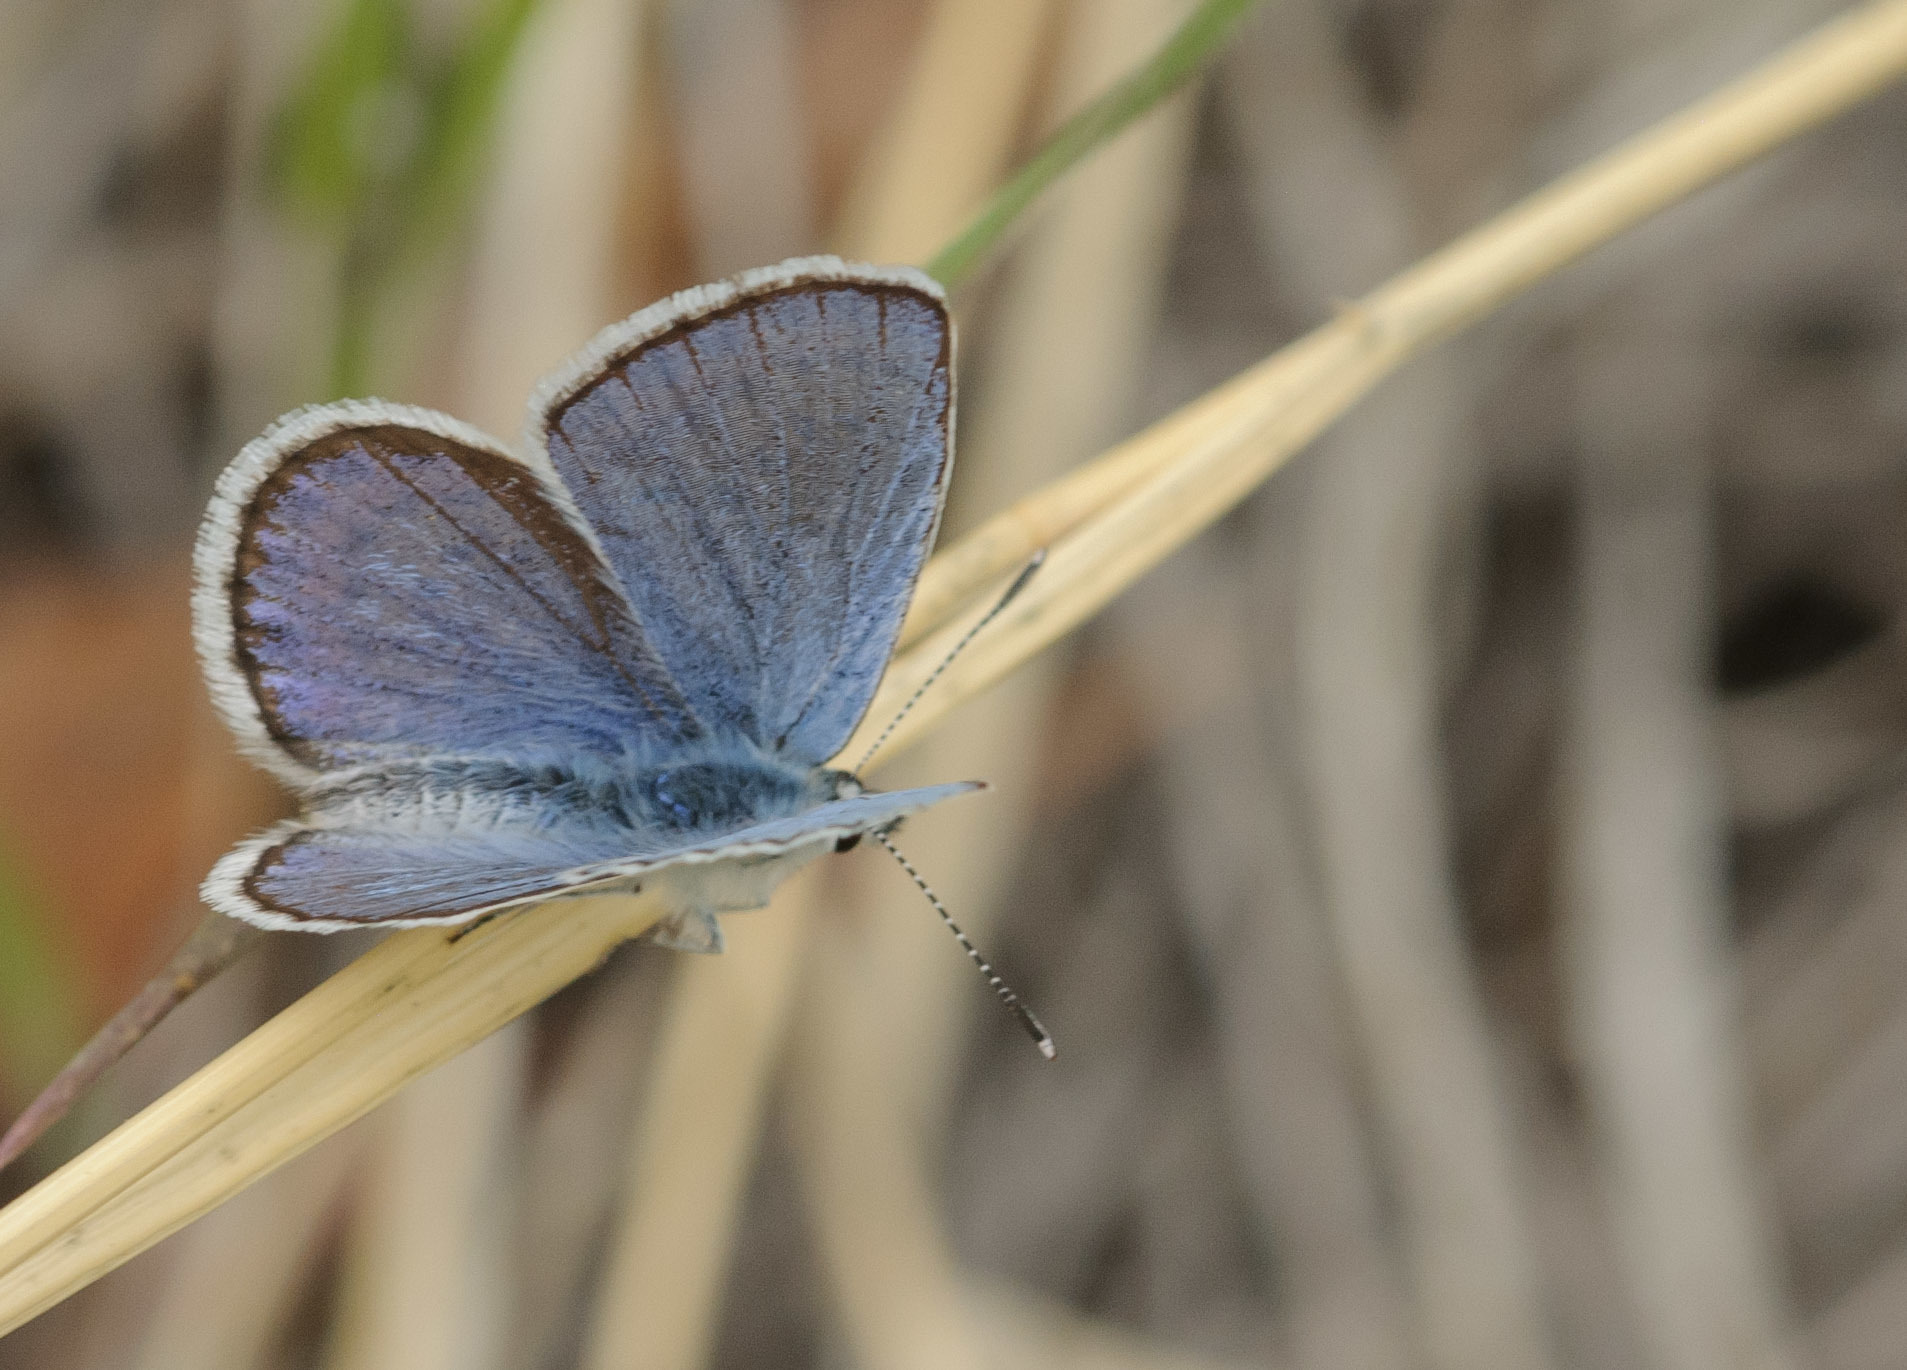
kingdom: Animalia
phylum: Arthropoda
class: Insecta
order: Lepidoptera
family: Lycaenidae
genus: Lycaeides
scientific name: Lycaeides melissa
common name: Melissa blue
